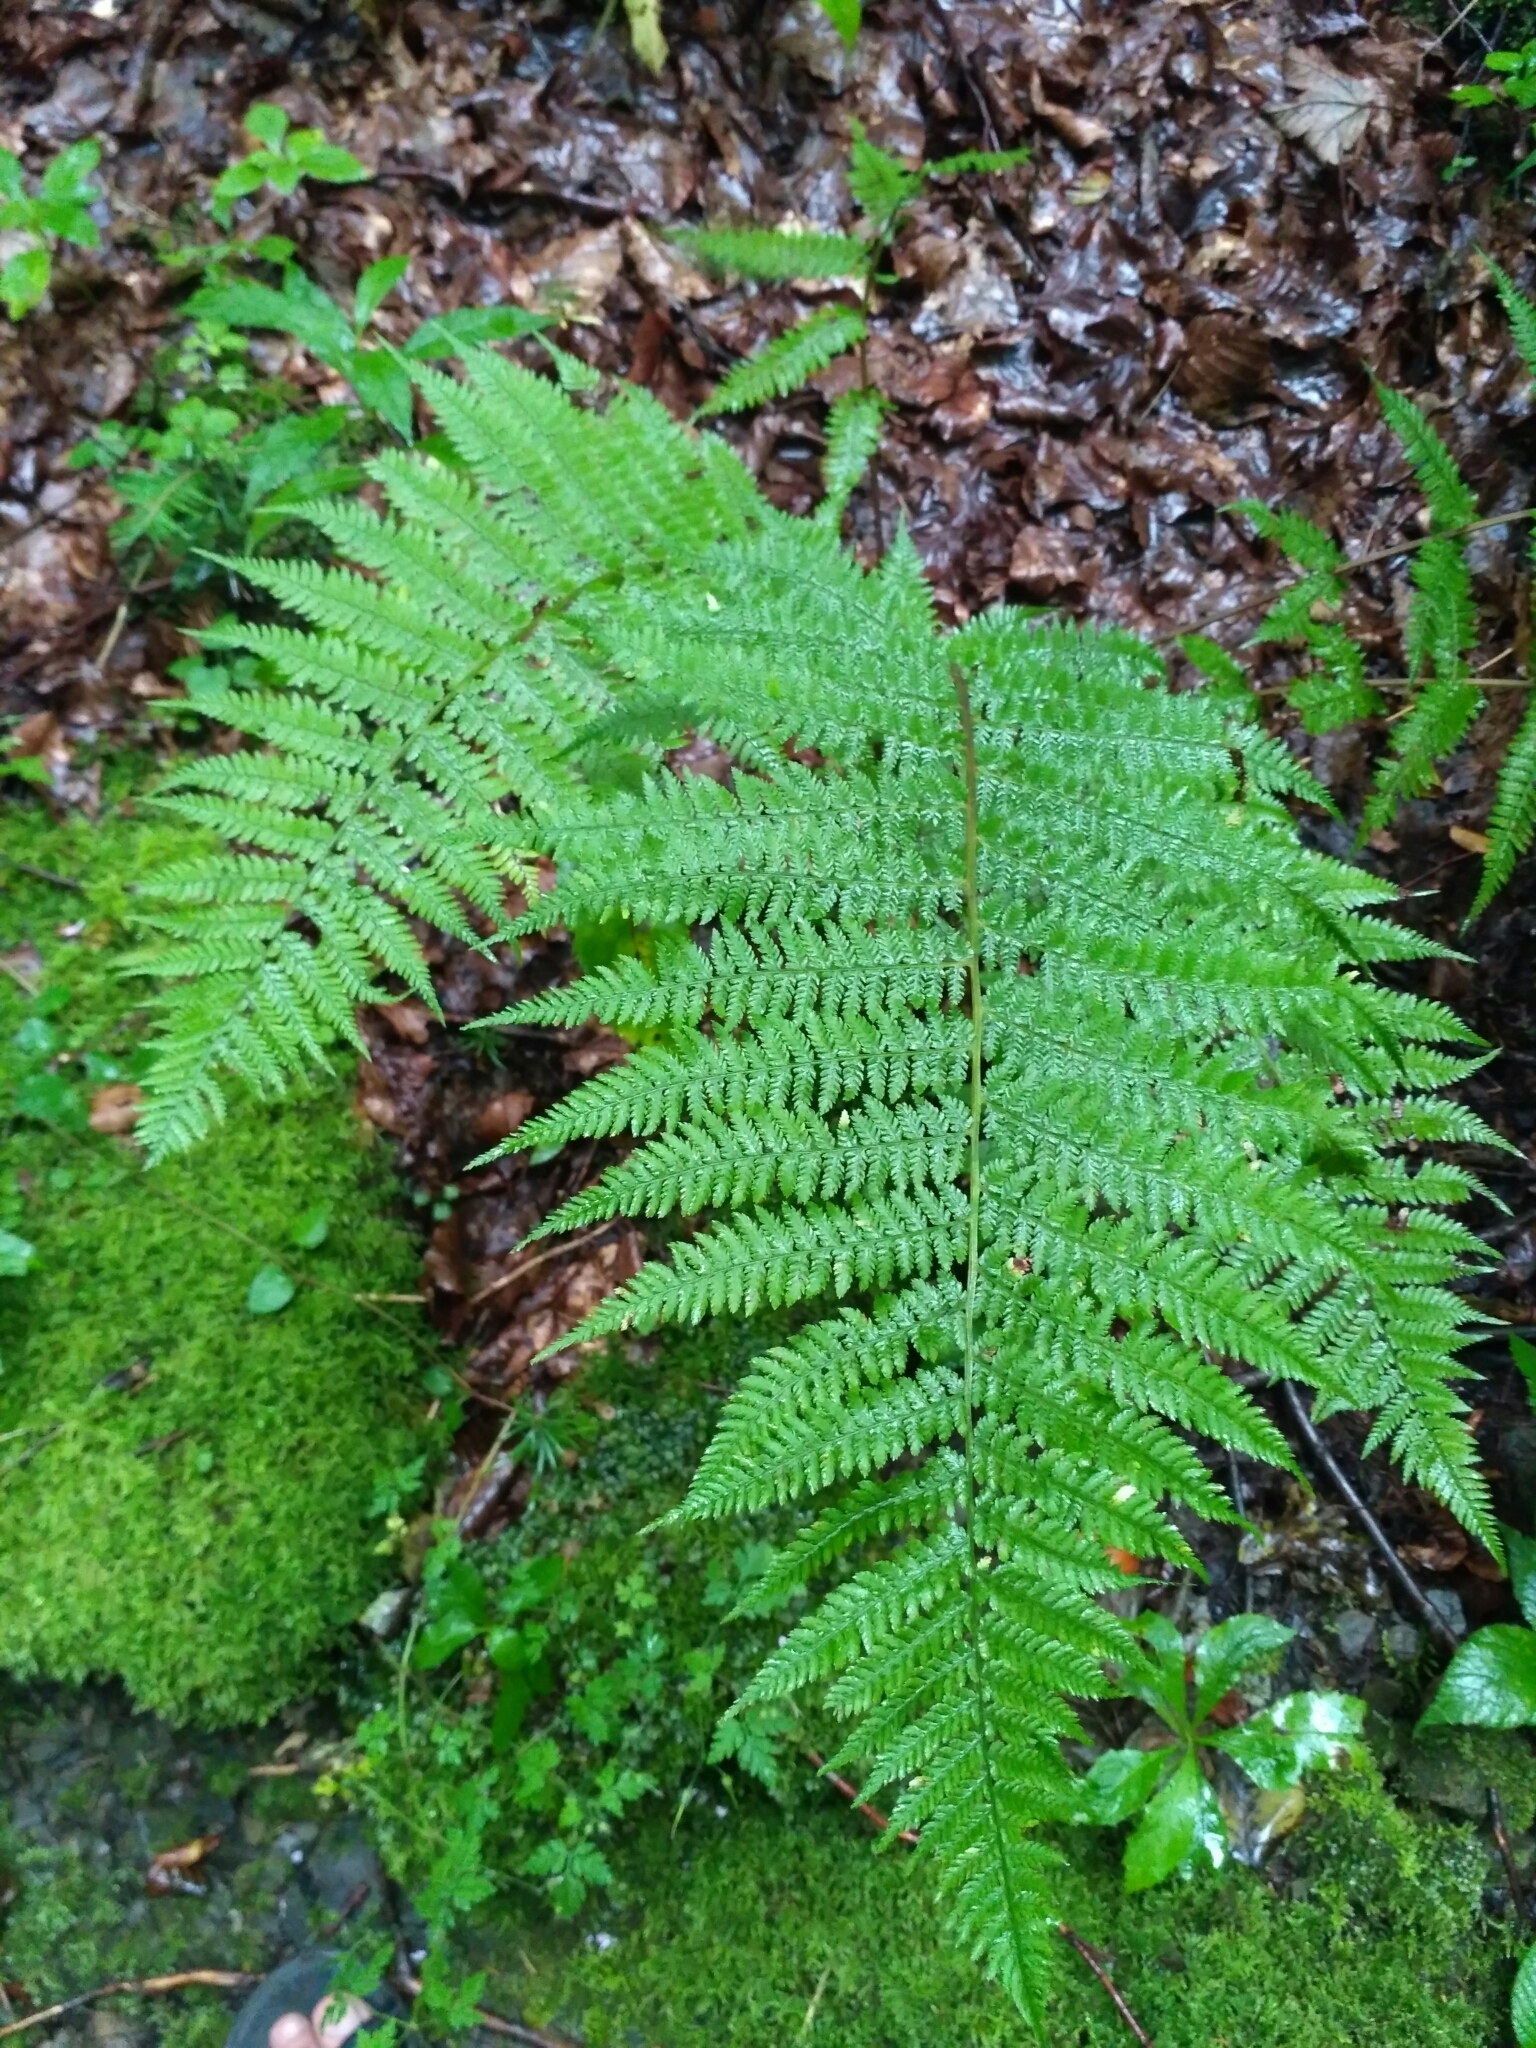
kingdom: Plantae
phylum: Tracheophyta
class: Polypodiopsida
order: Polypodiales
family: Athyriaceae
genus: Athyrium
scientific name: Athyrium filix-femina
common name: Lady fern
